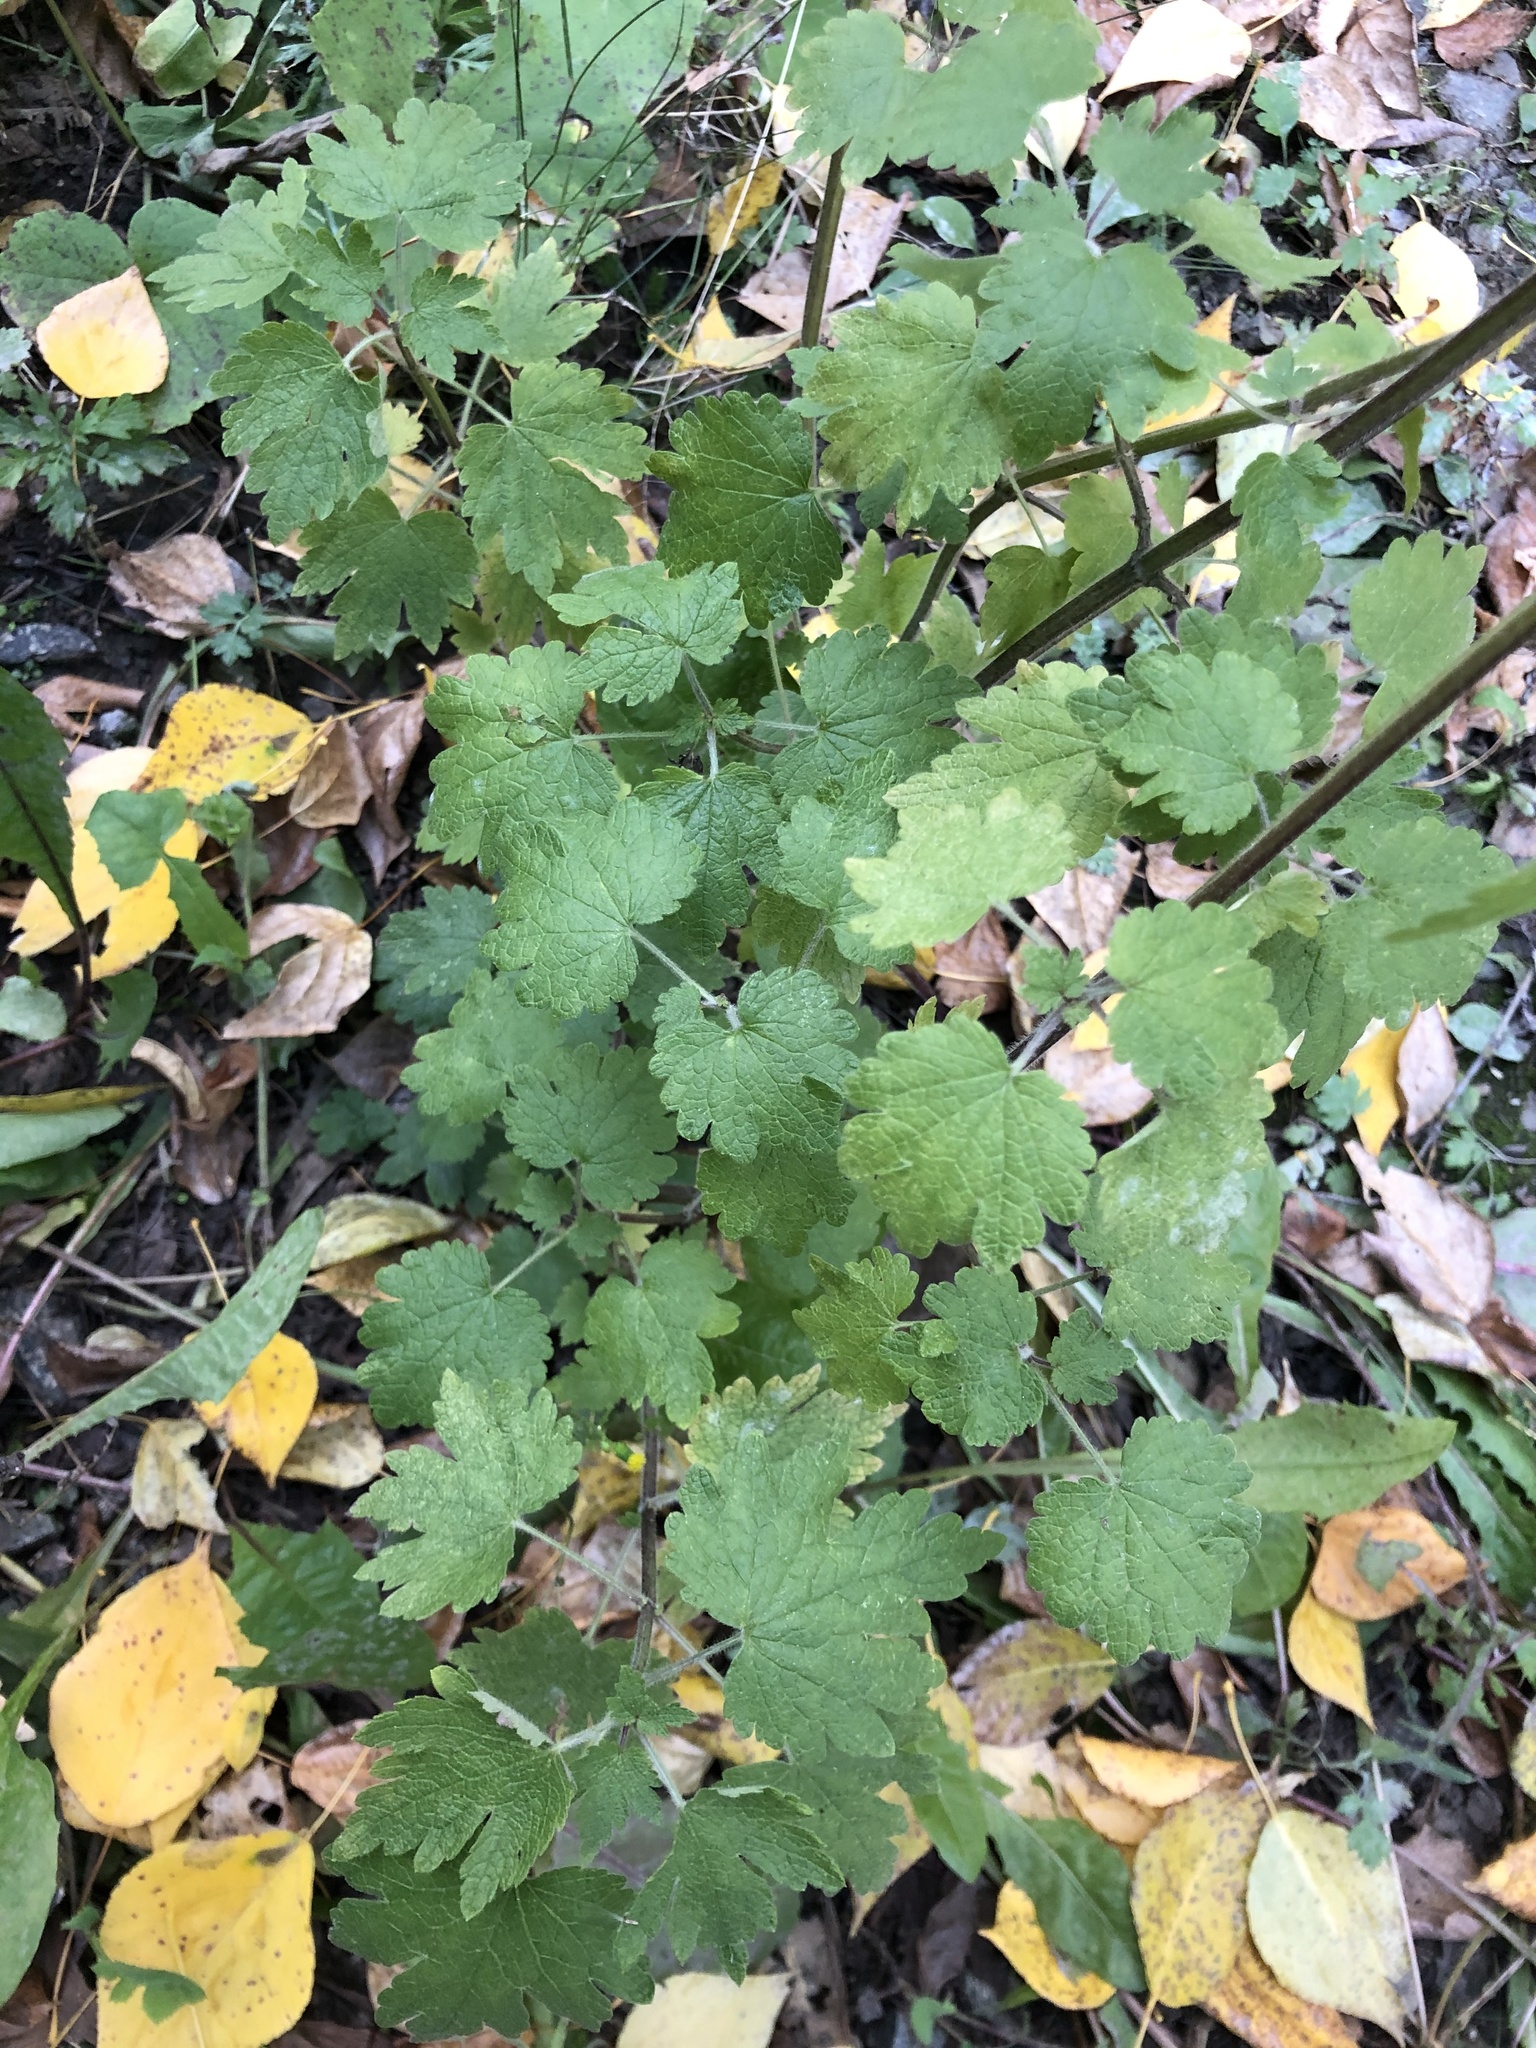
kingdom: Plantae
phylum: Tracheophyta
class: Magnoliopsida
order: Lamiales
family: Lamiaceae
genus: Leonurus
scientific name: Leonurus quinquelobatus
